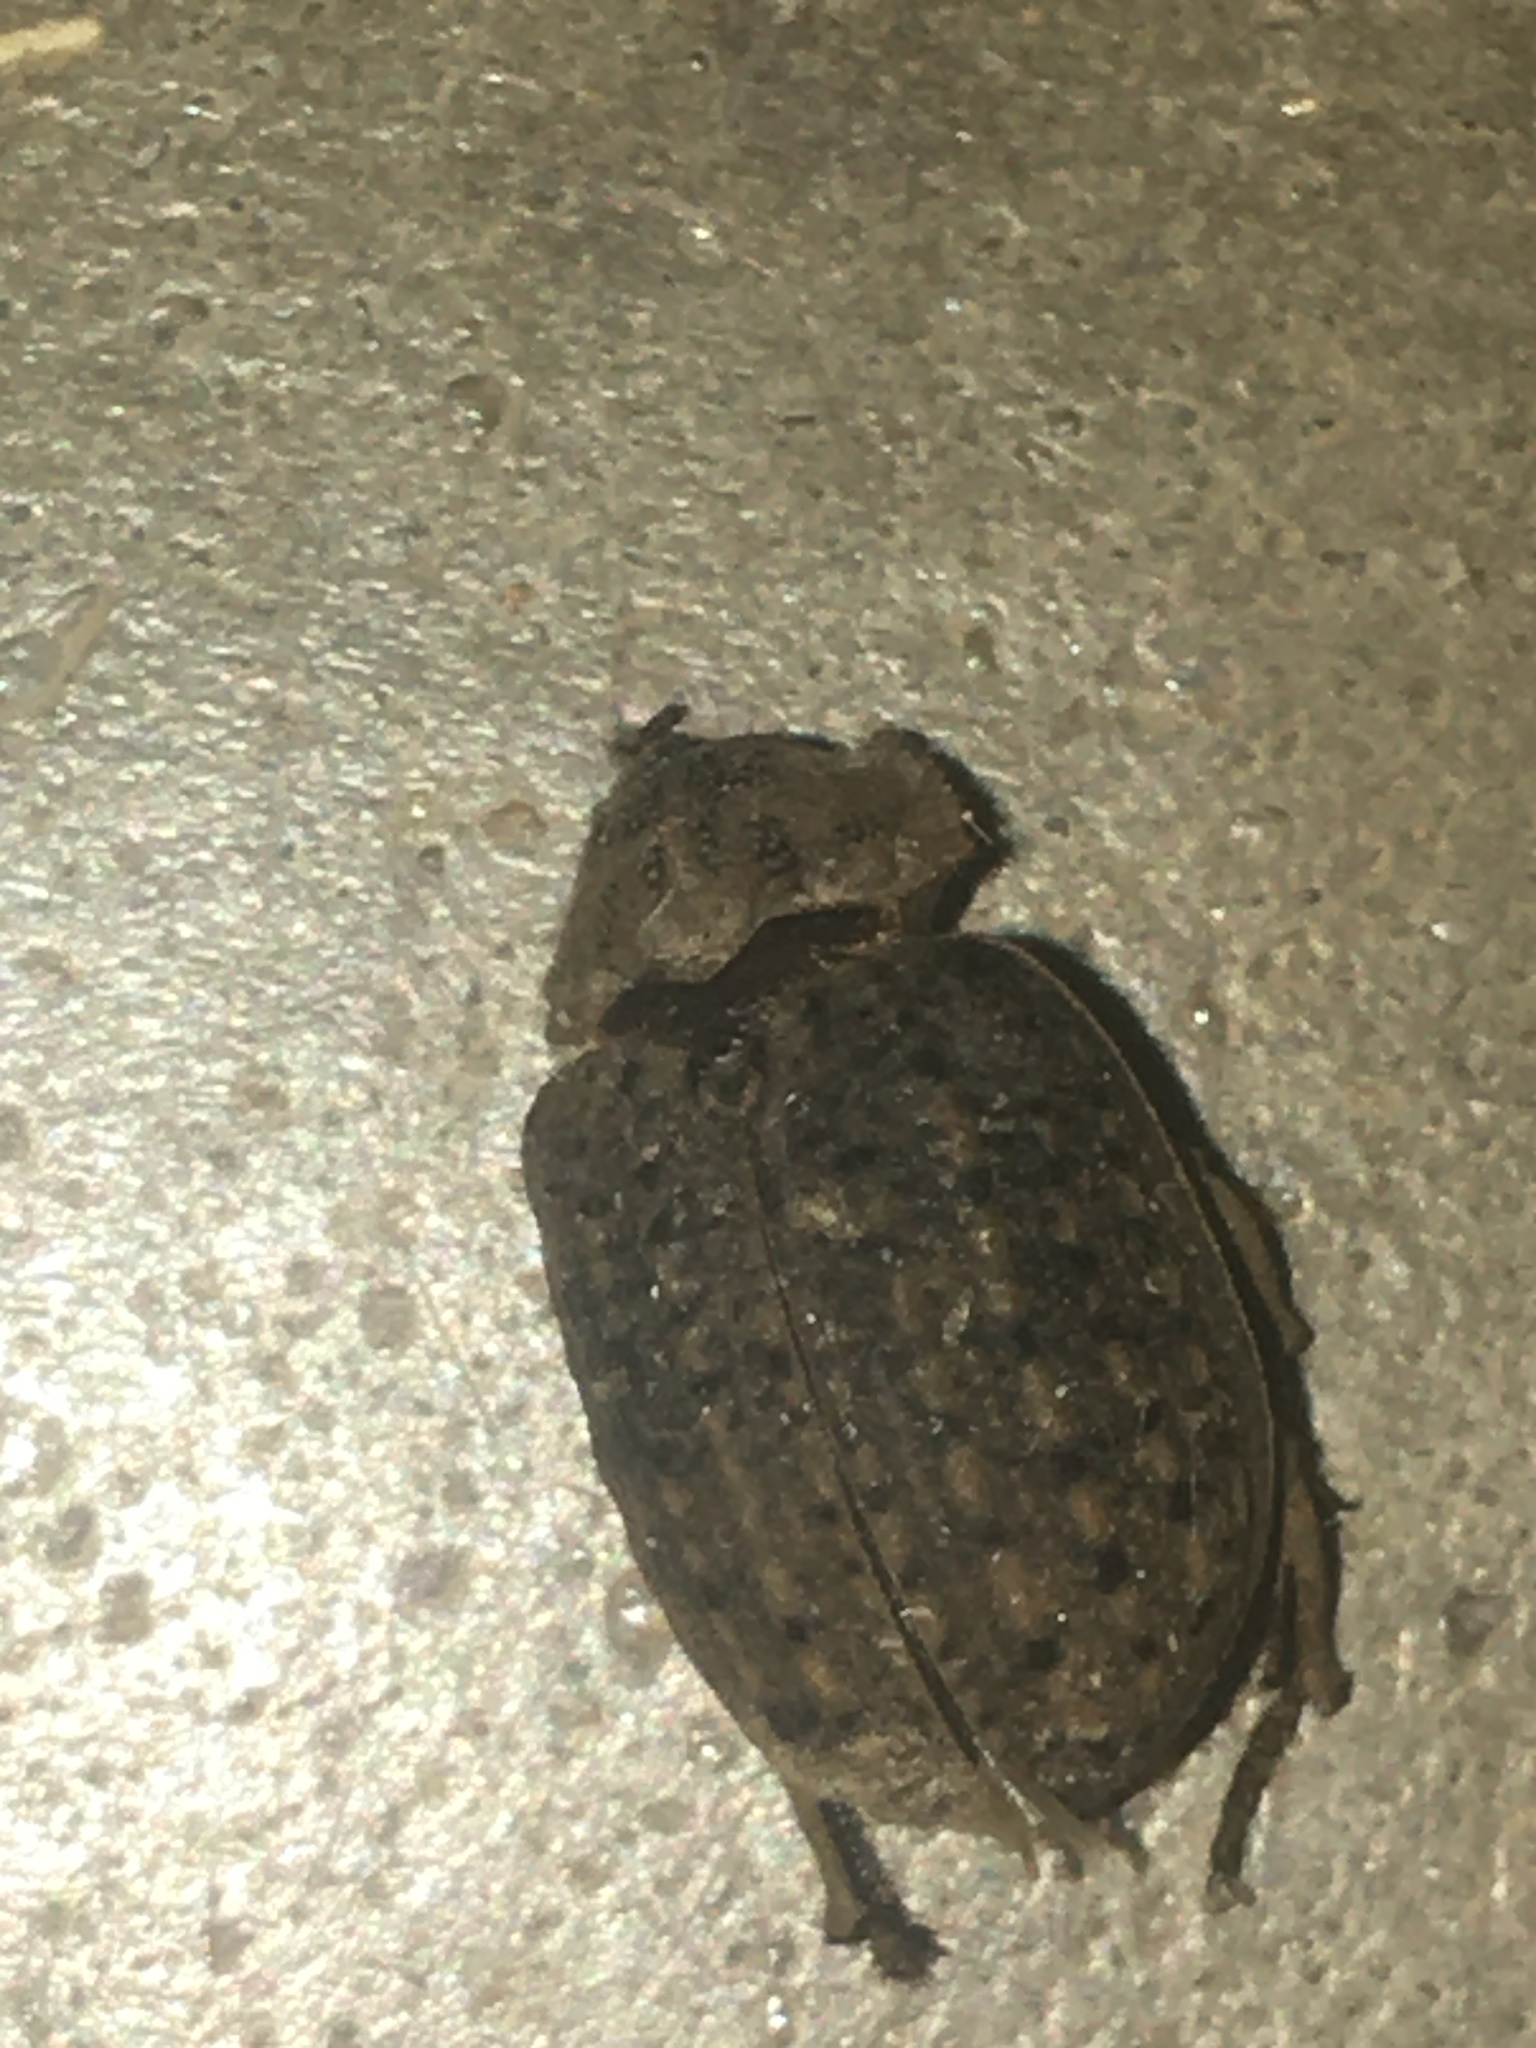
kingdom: Animalia
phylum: Arthropoda
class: Insecta
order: Coleoptera
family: Trogidae
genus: Omorgus
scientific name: Omorgus suberosus
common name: Hide beetle
